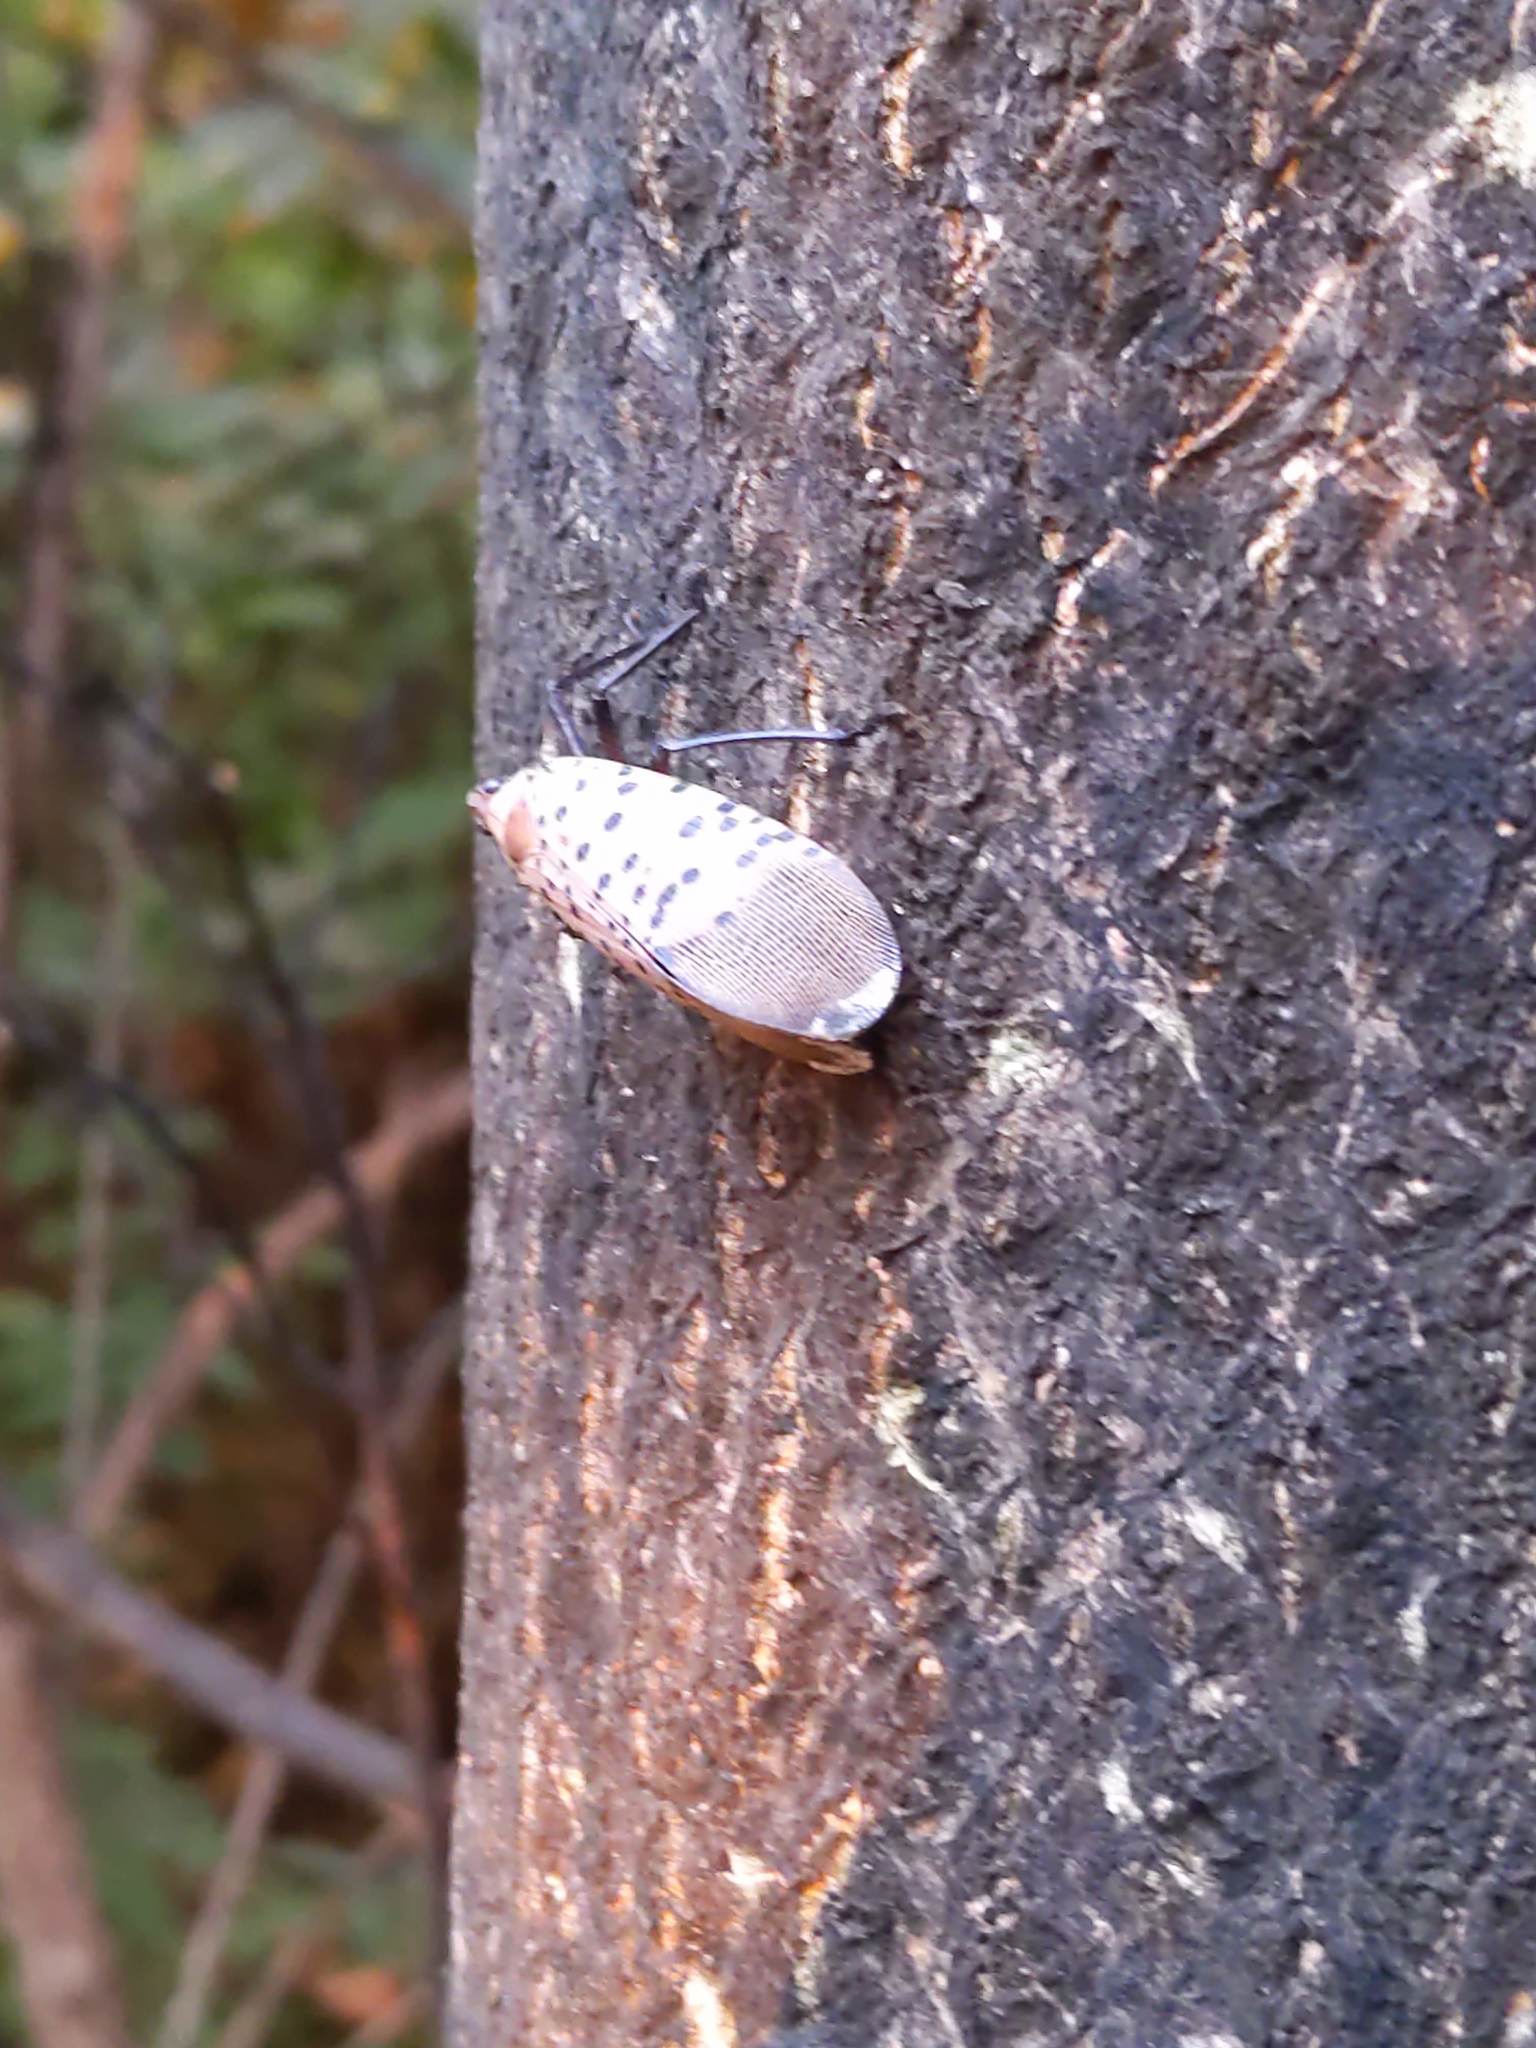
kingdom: Animalia
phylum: Arthropoda
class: Insecta
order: Hemiptera
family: Fulgoridae
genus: Lycorma
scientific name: Lycorma delicatula
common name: Spotted lanternfly
